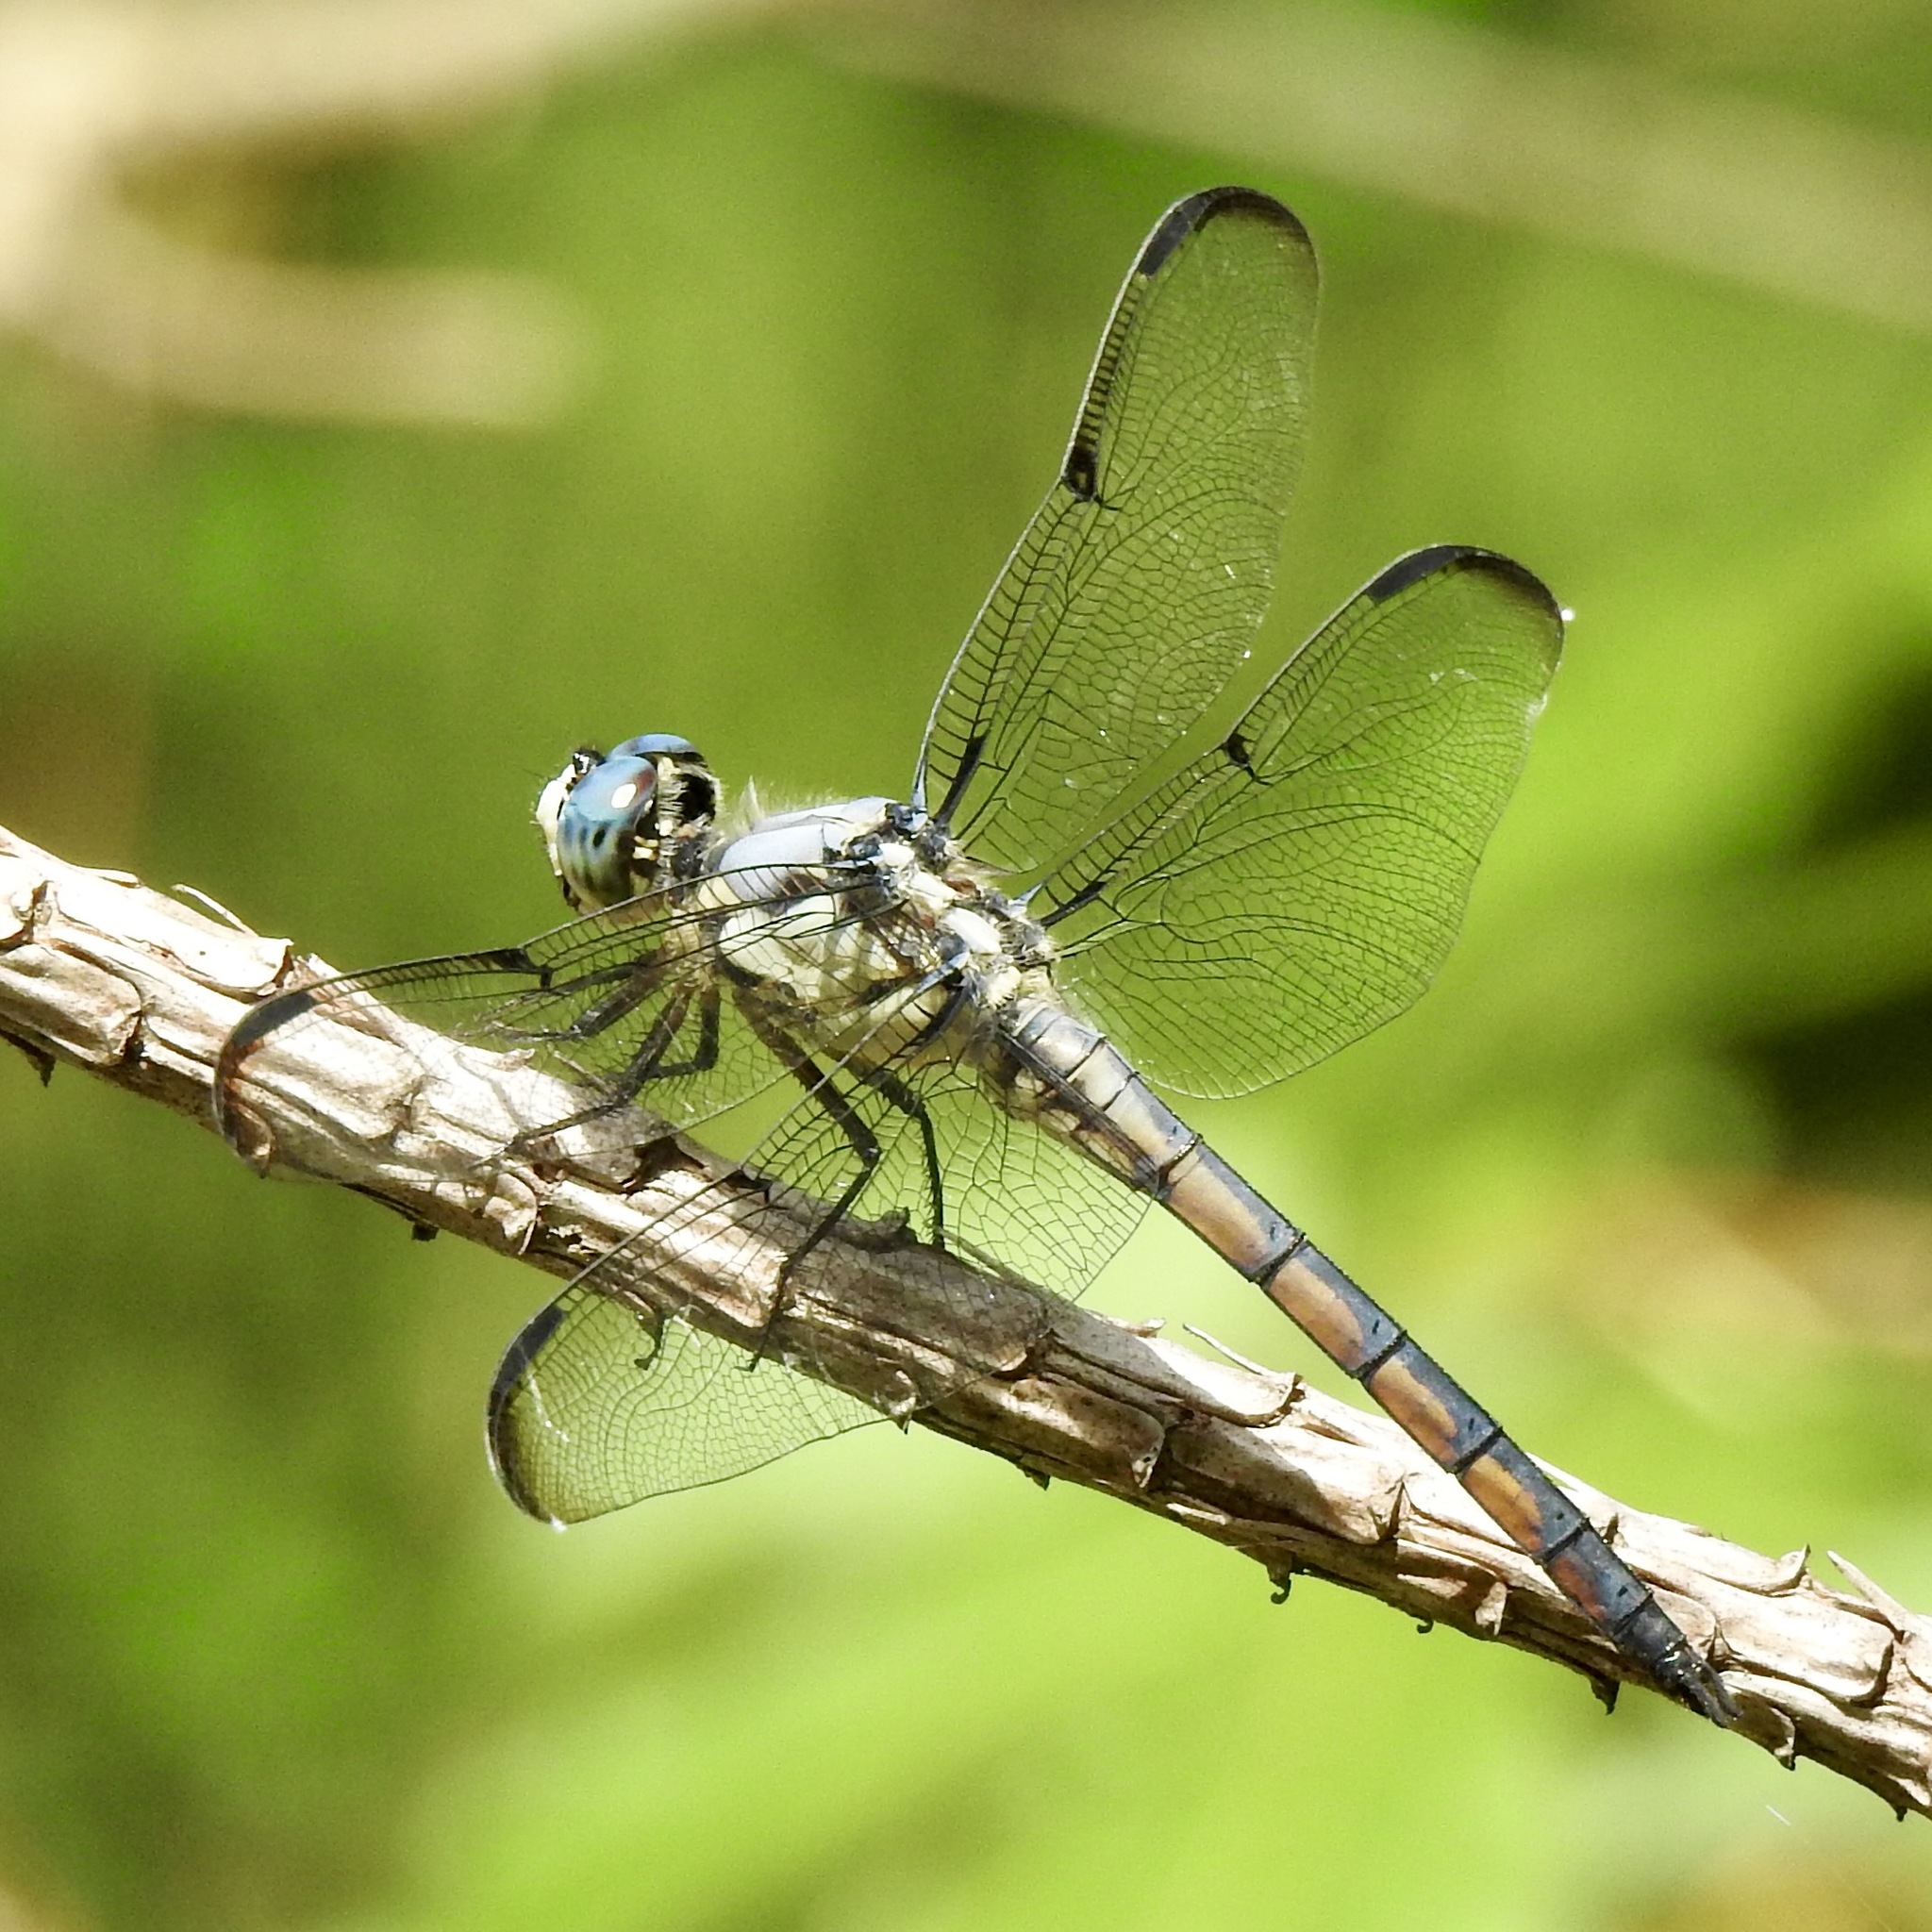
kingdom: Animalia
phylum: Arthropoda
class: Insecta
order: Odonata
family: Libellulidae
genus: Libellula
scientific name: Libellula vibrans
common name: Great blue skimmer
